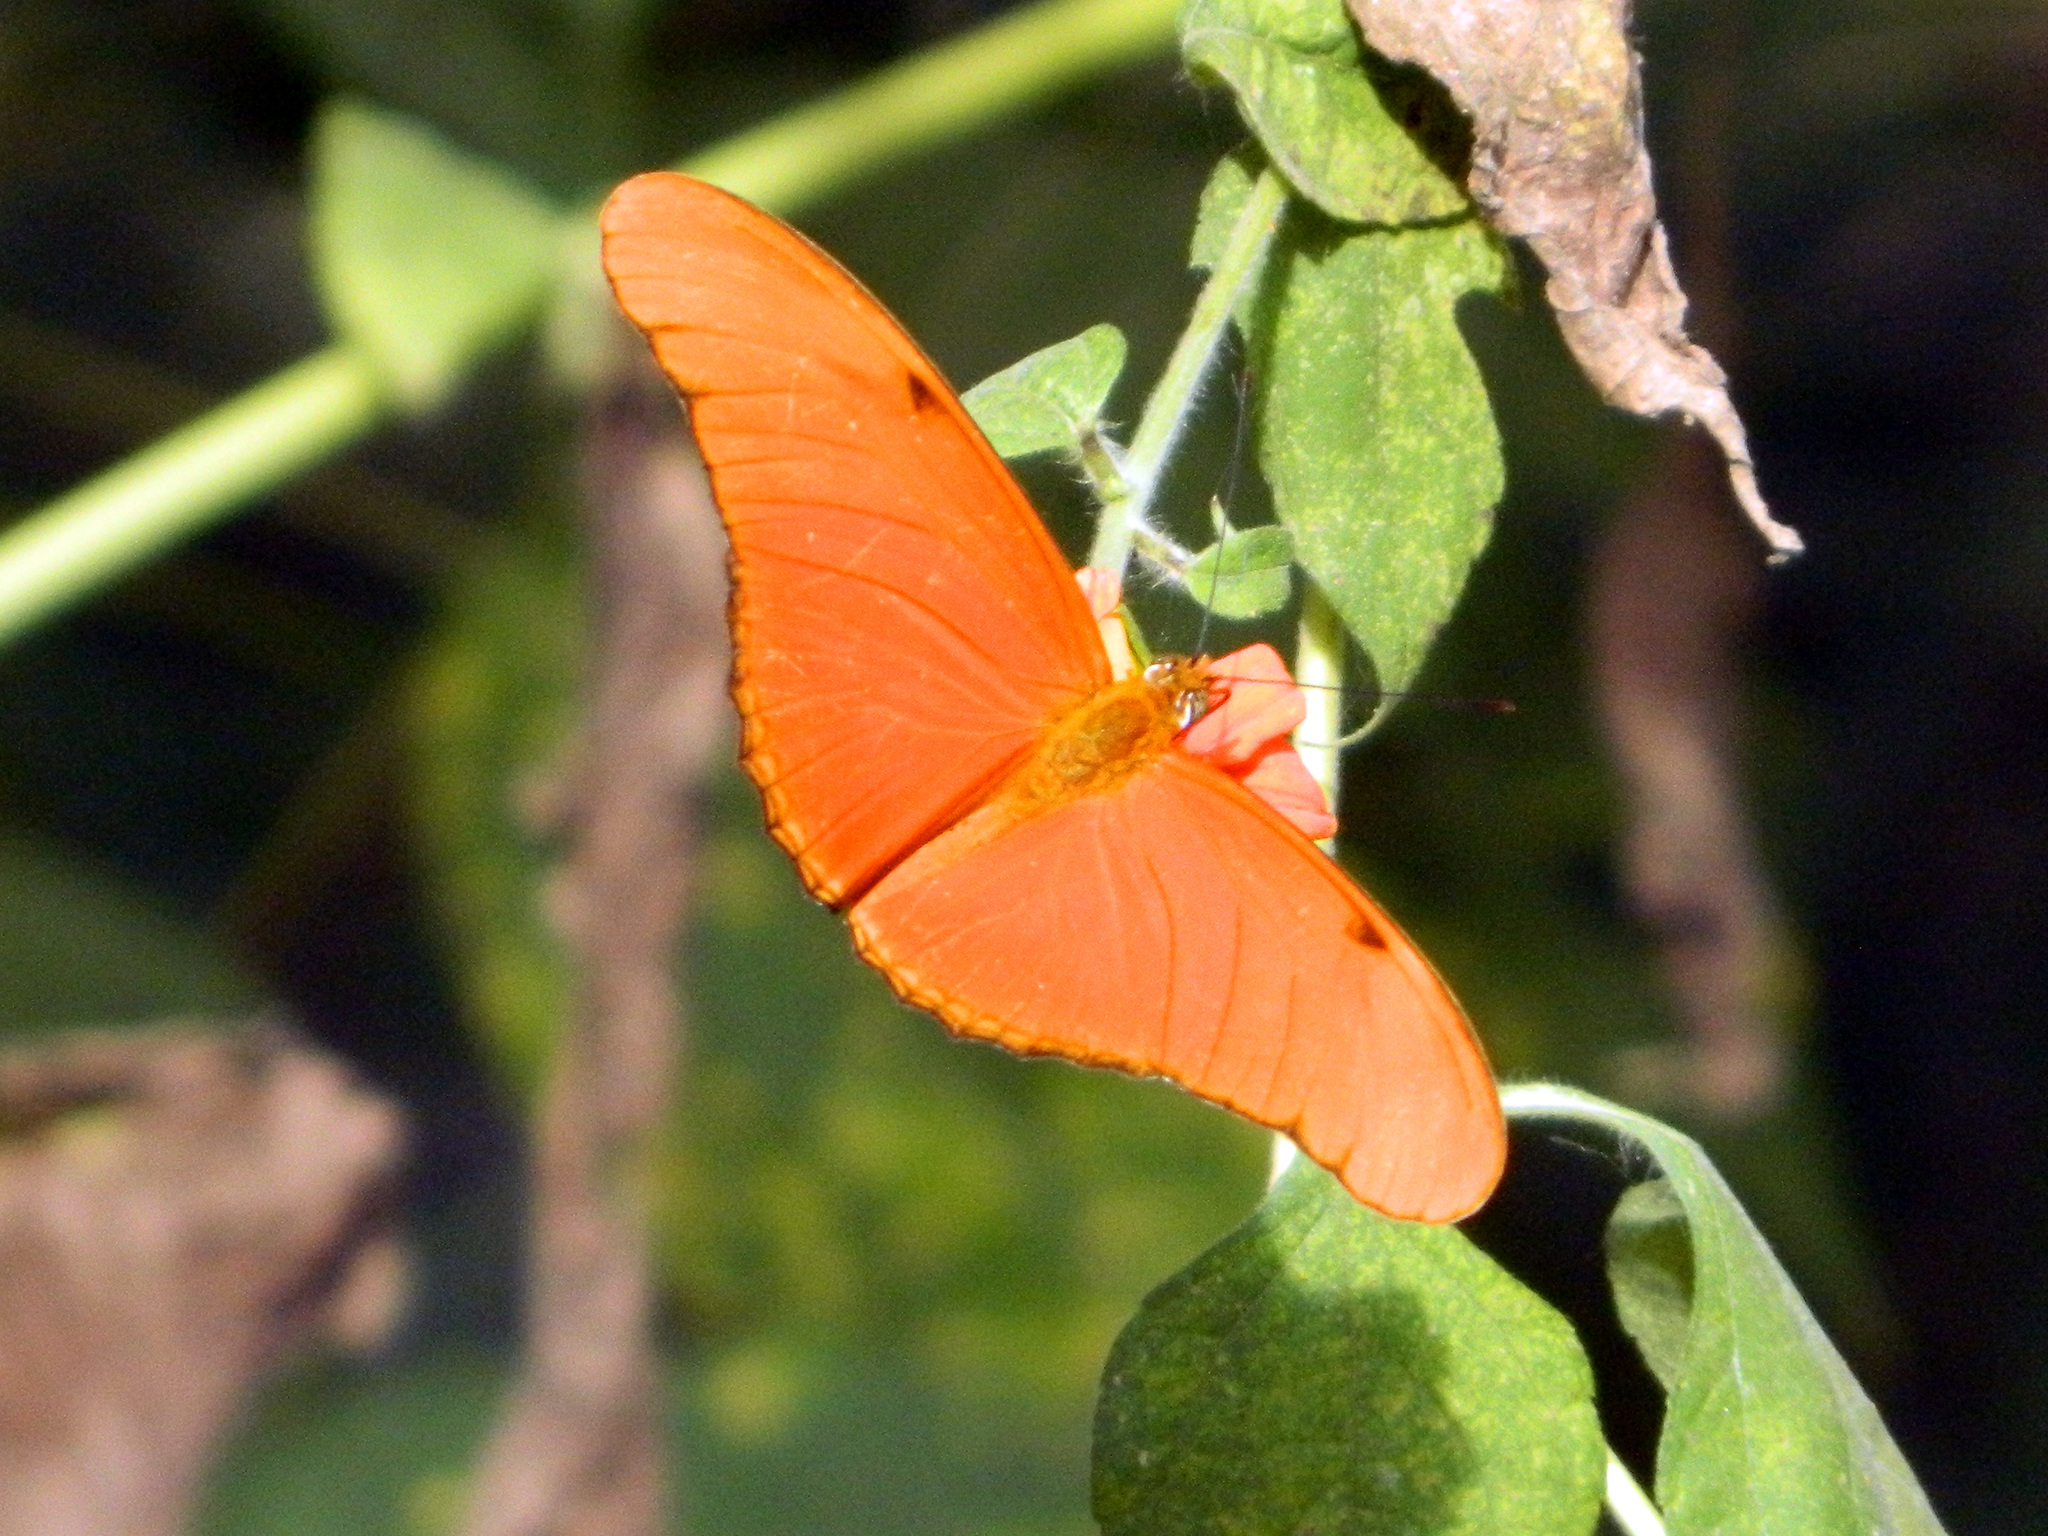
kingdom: Animalia
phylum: Arthropoda
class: Insecta
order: Lepidoptera
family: Nymphalidae
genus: Dryas
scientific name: Dryas iulia
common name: Flambeau
